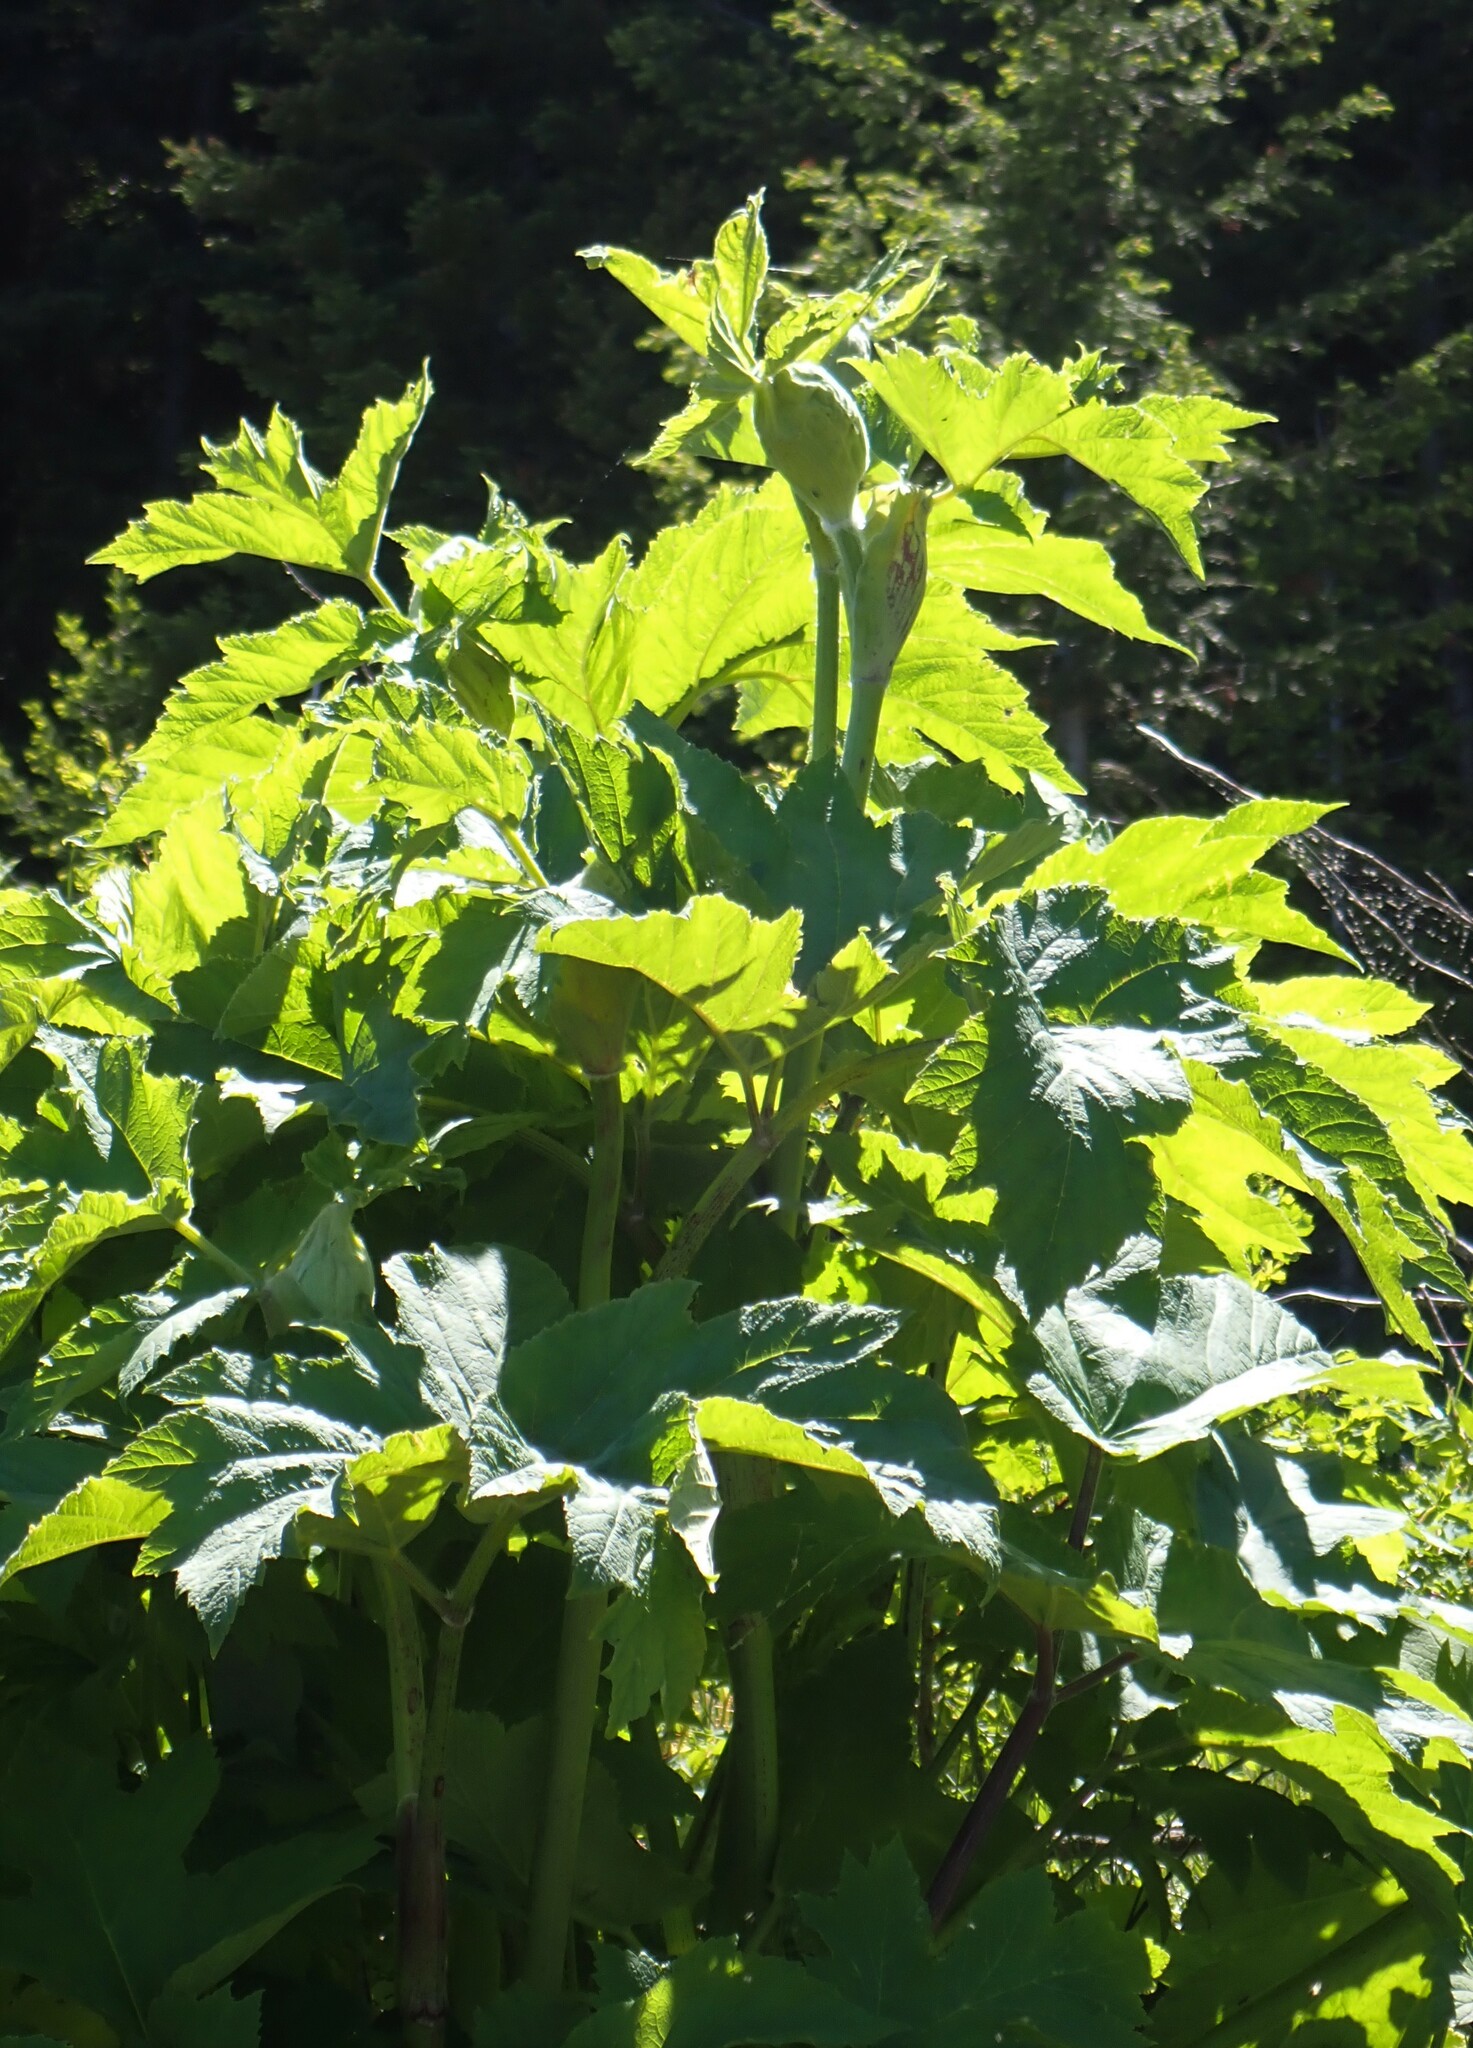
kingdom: Plantae
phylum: Tracheophyta
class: Magnoliopsida
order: Apiales
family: Apiaceae
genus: Heracleum
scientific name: Heracleum maximum
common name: American cow parsnip
